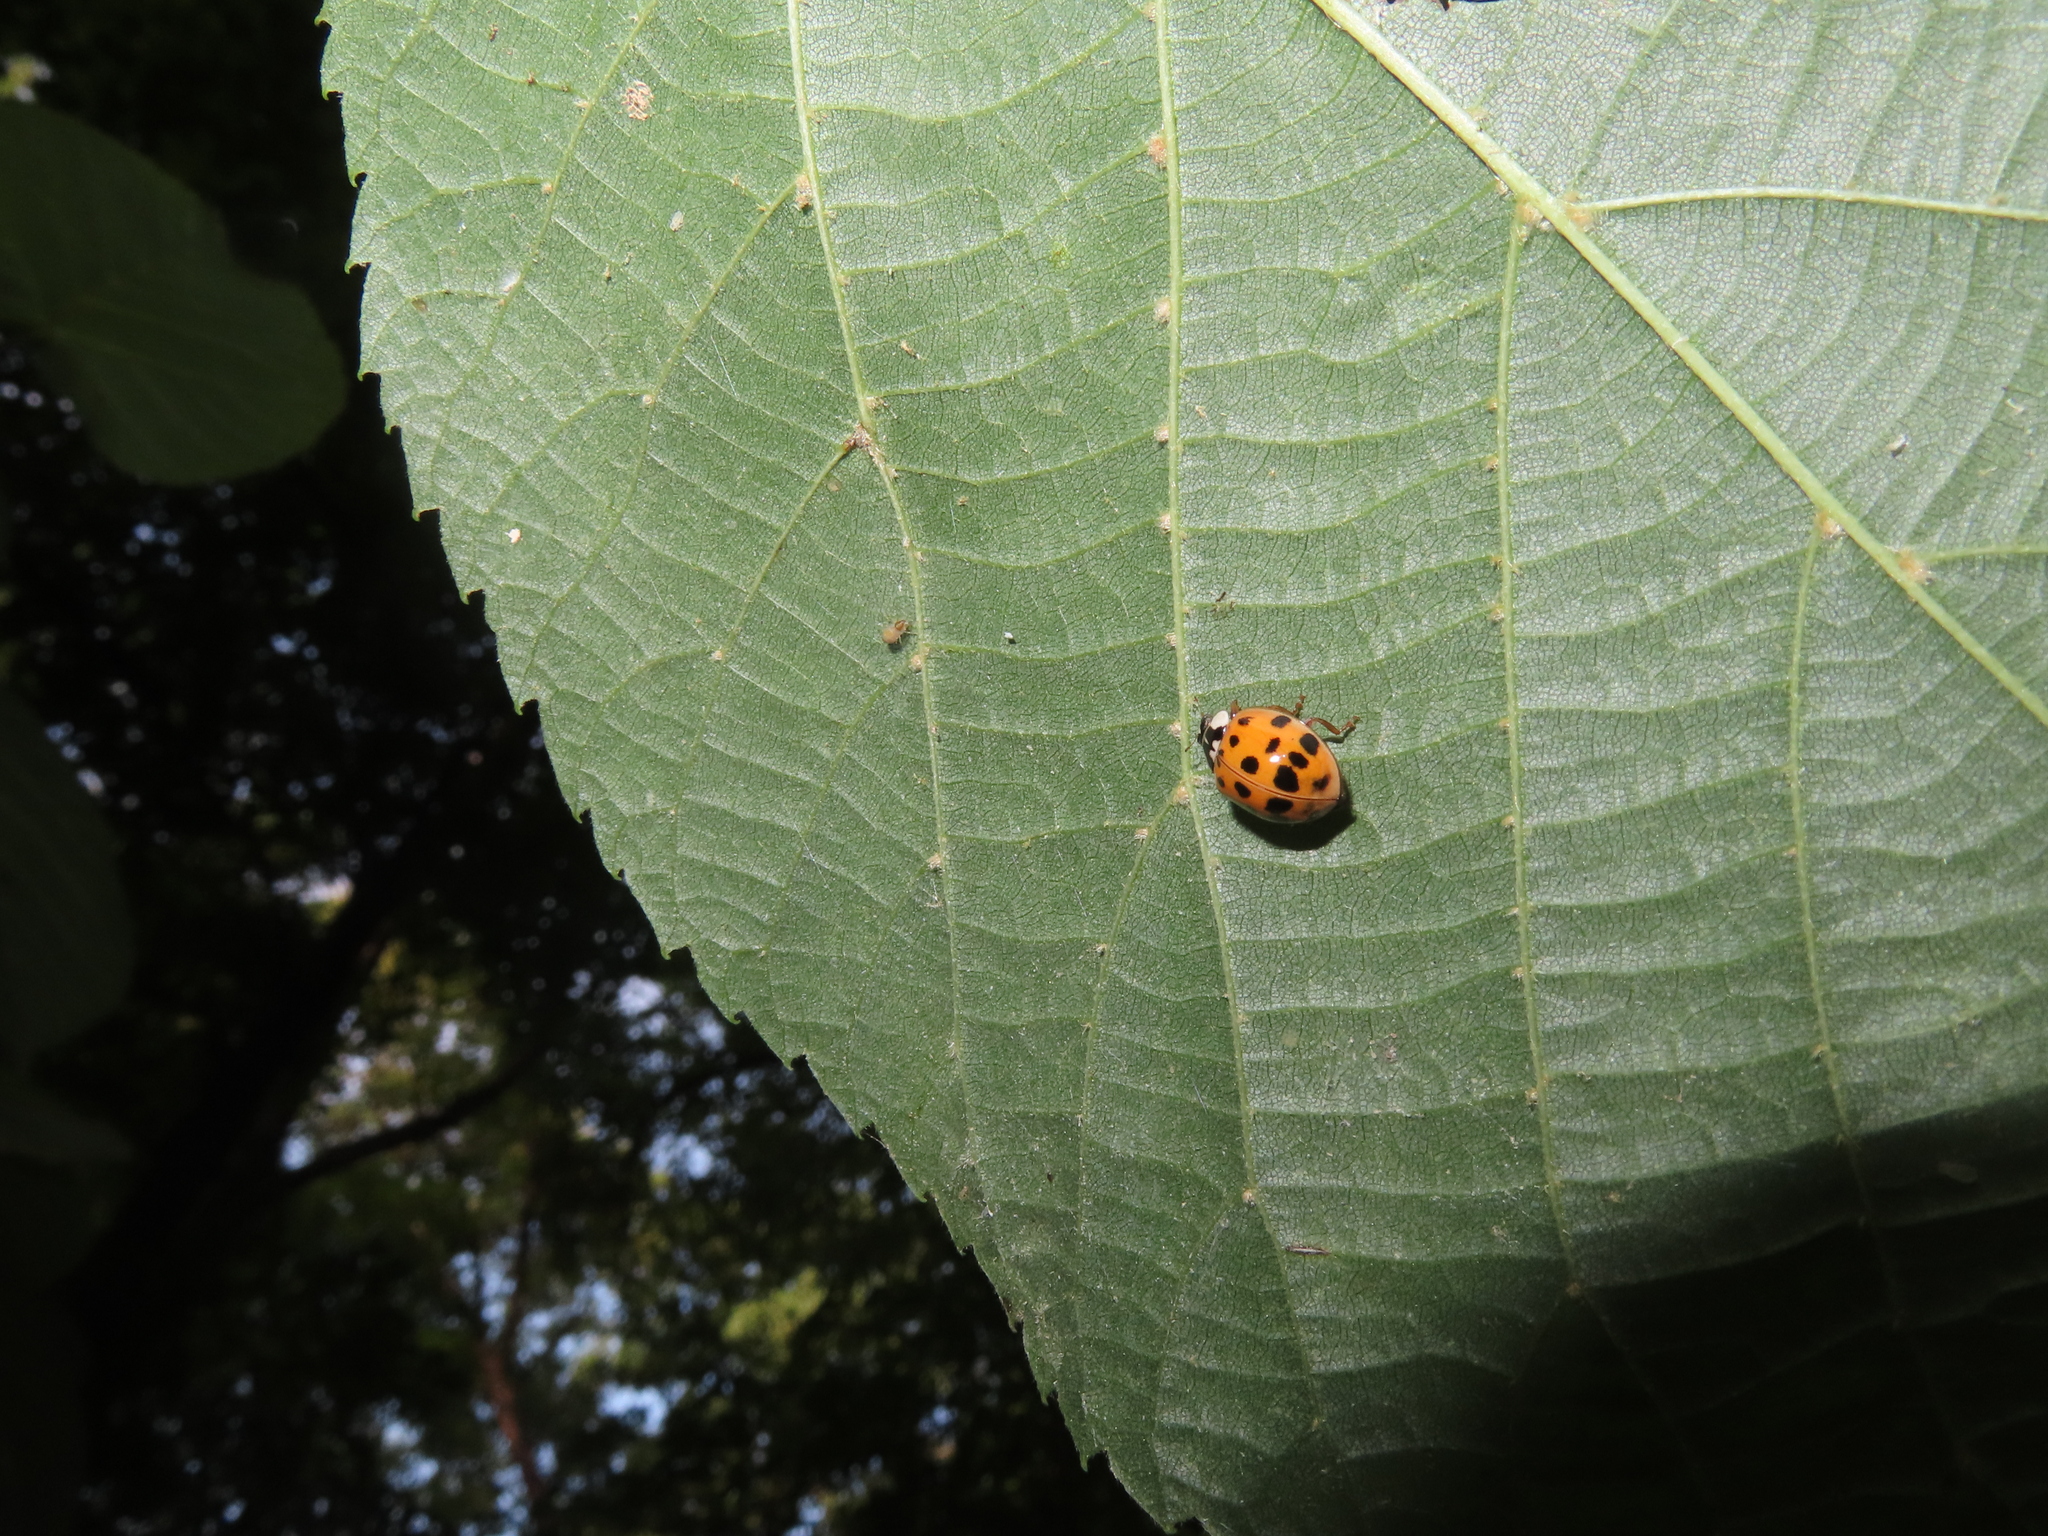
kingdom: Animalia
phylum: Arthropoda
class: Insecta
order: Coleoptera
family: Coccinellidae
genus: Harmonia
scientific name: Harmonia axyridis
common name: Harlequin ladybird
